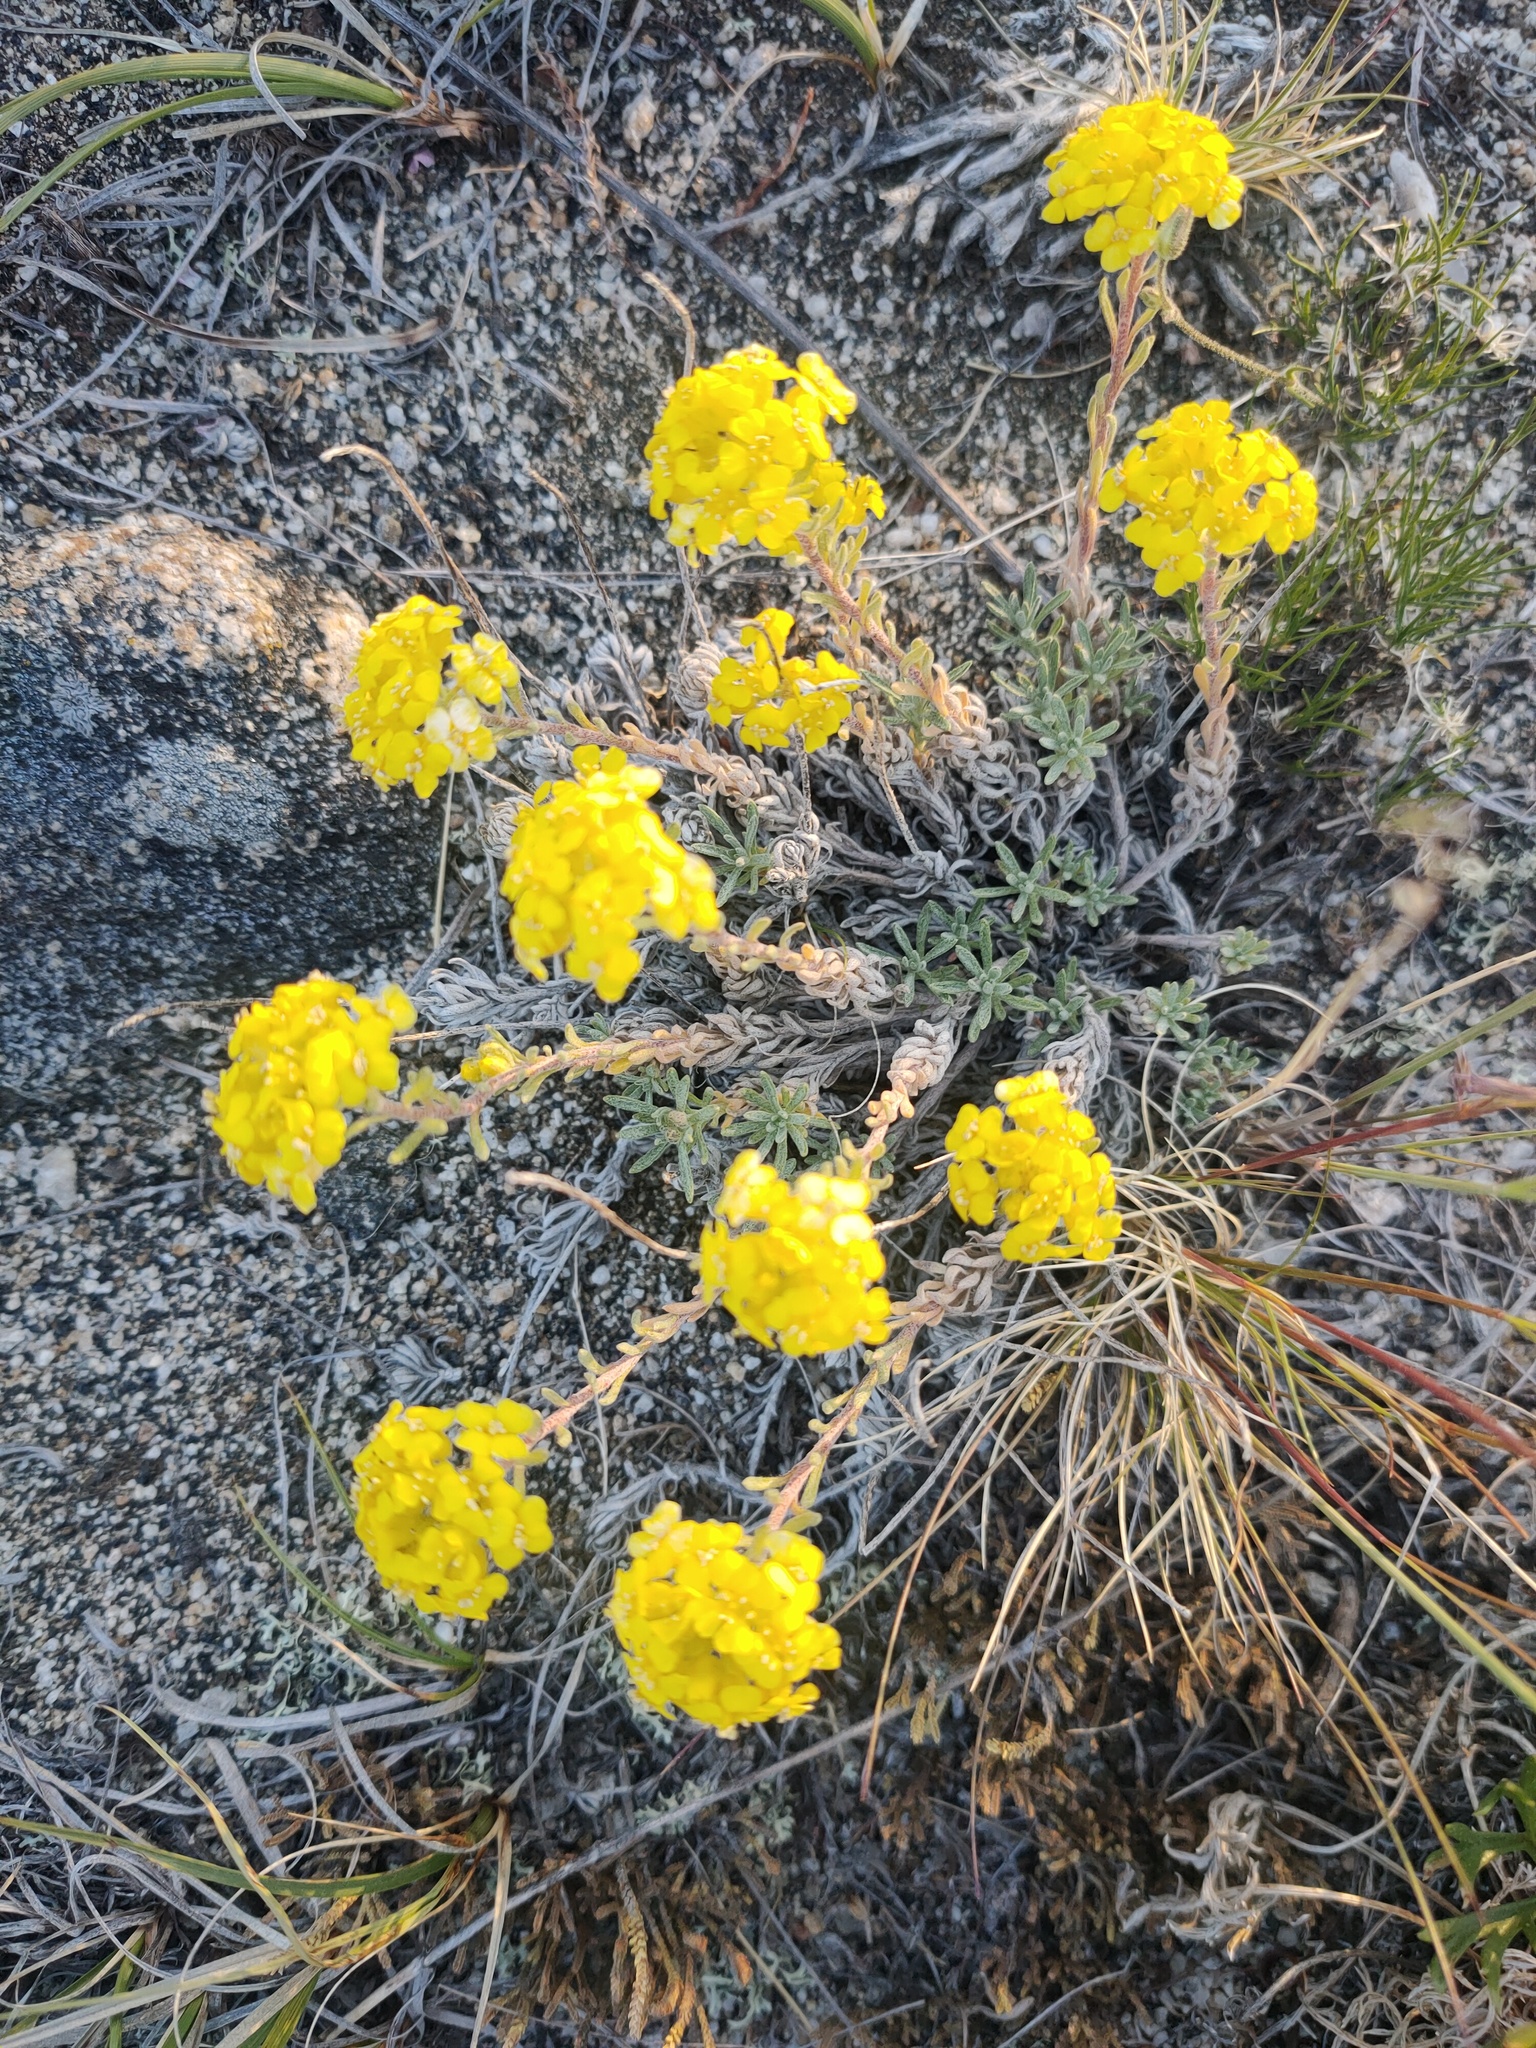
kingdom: Plantae
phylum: Tracheophyta
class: Magnoliopsida
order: Brassicales
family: Brassicaceae
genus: Alyssum
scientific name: Alyssum lenense
